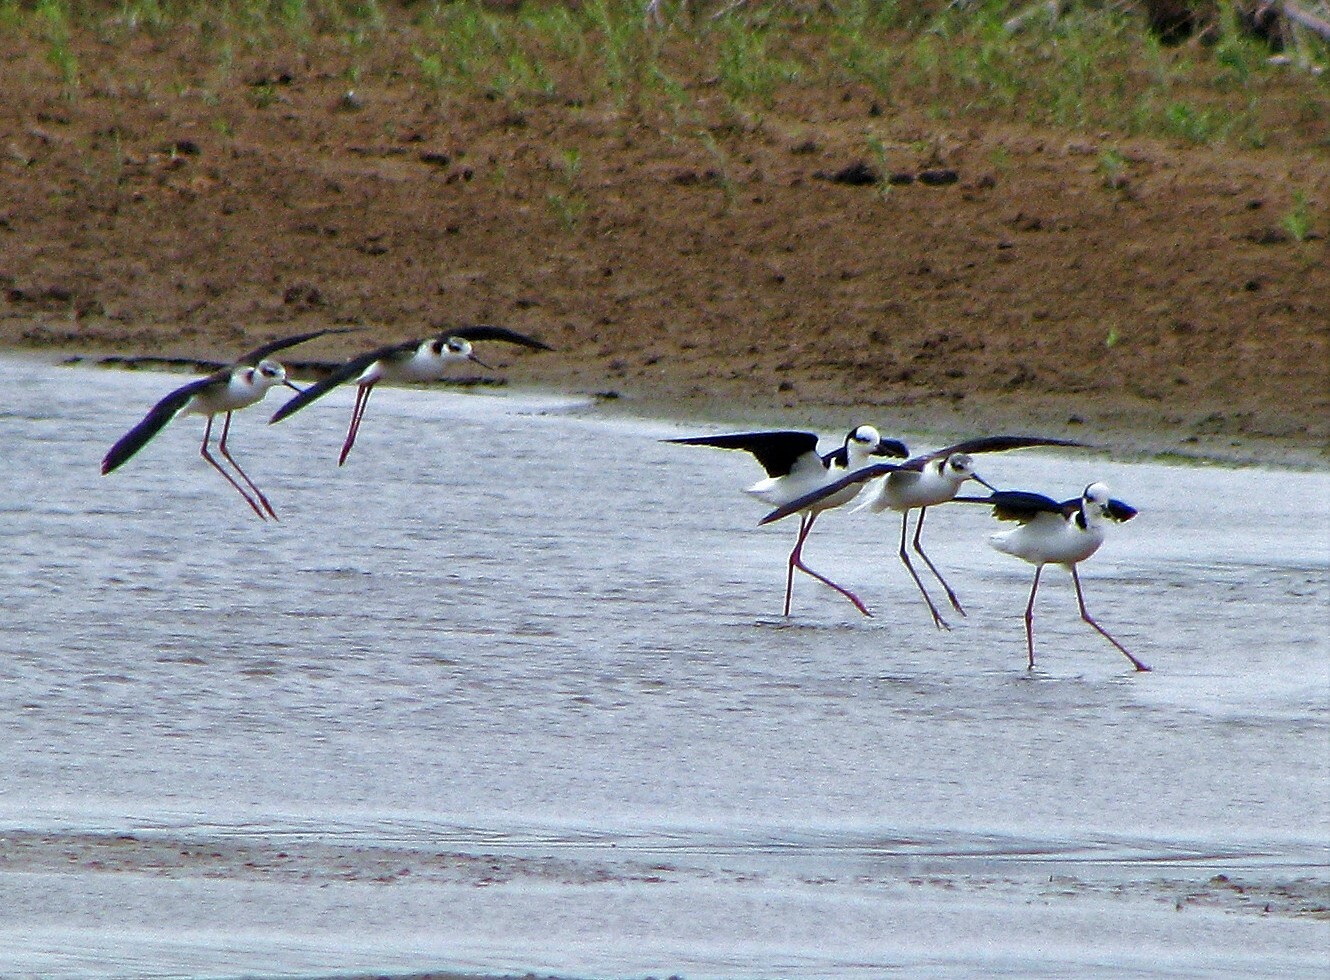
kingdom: Animalia
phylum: Chordata
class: Aves
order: Charadriiformes
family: Recurvirostridae
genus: Himantopus
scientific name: Himantopus mexicanus
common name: Black-necked stilt
